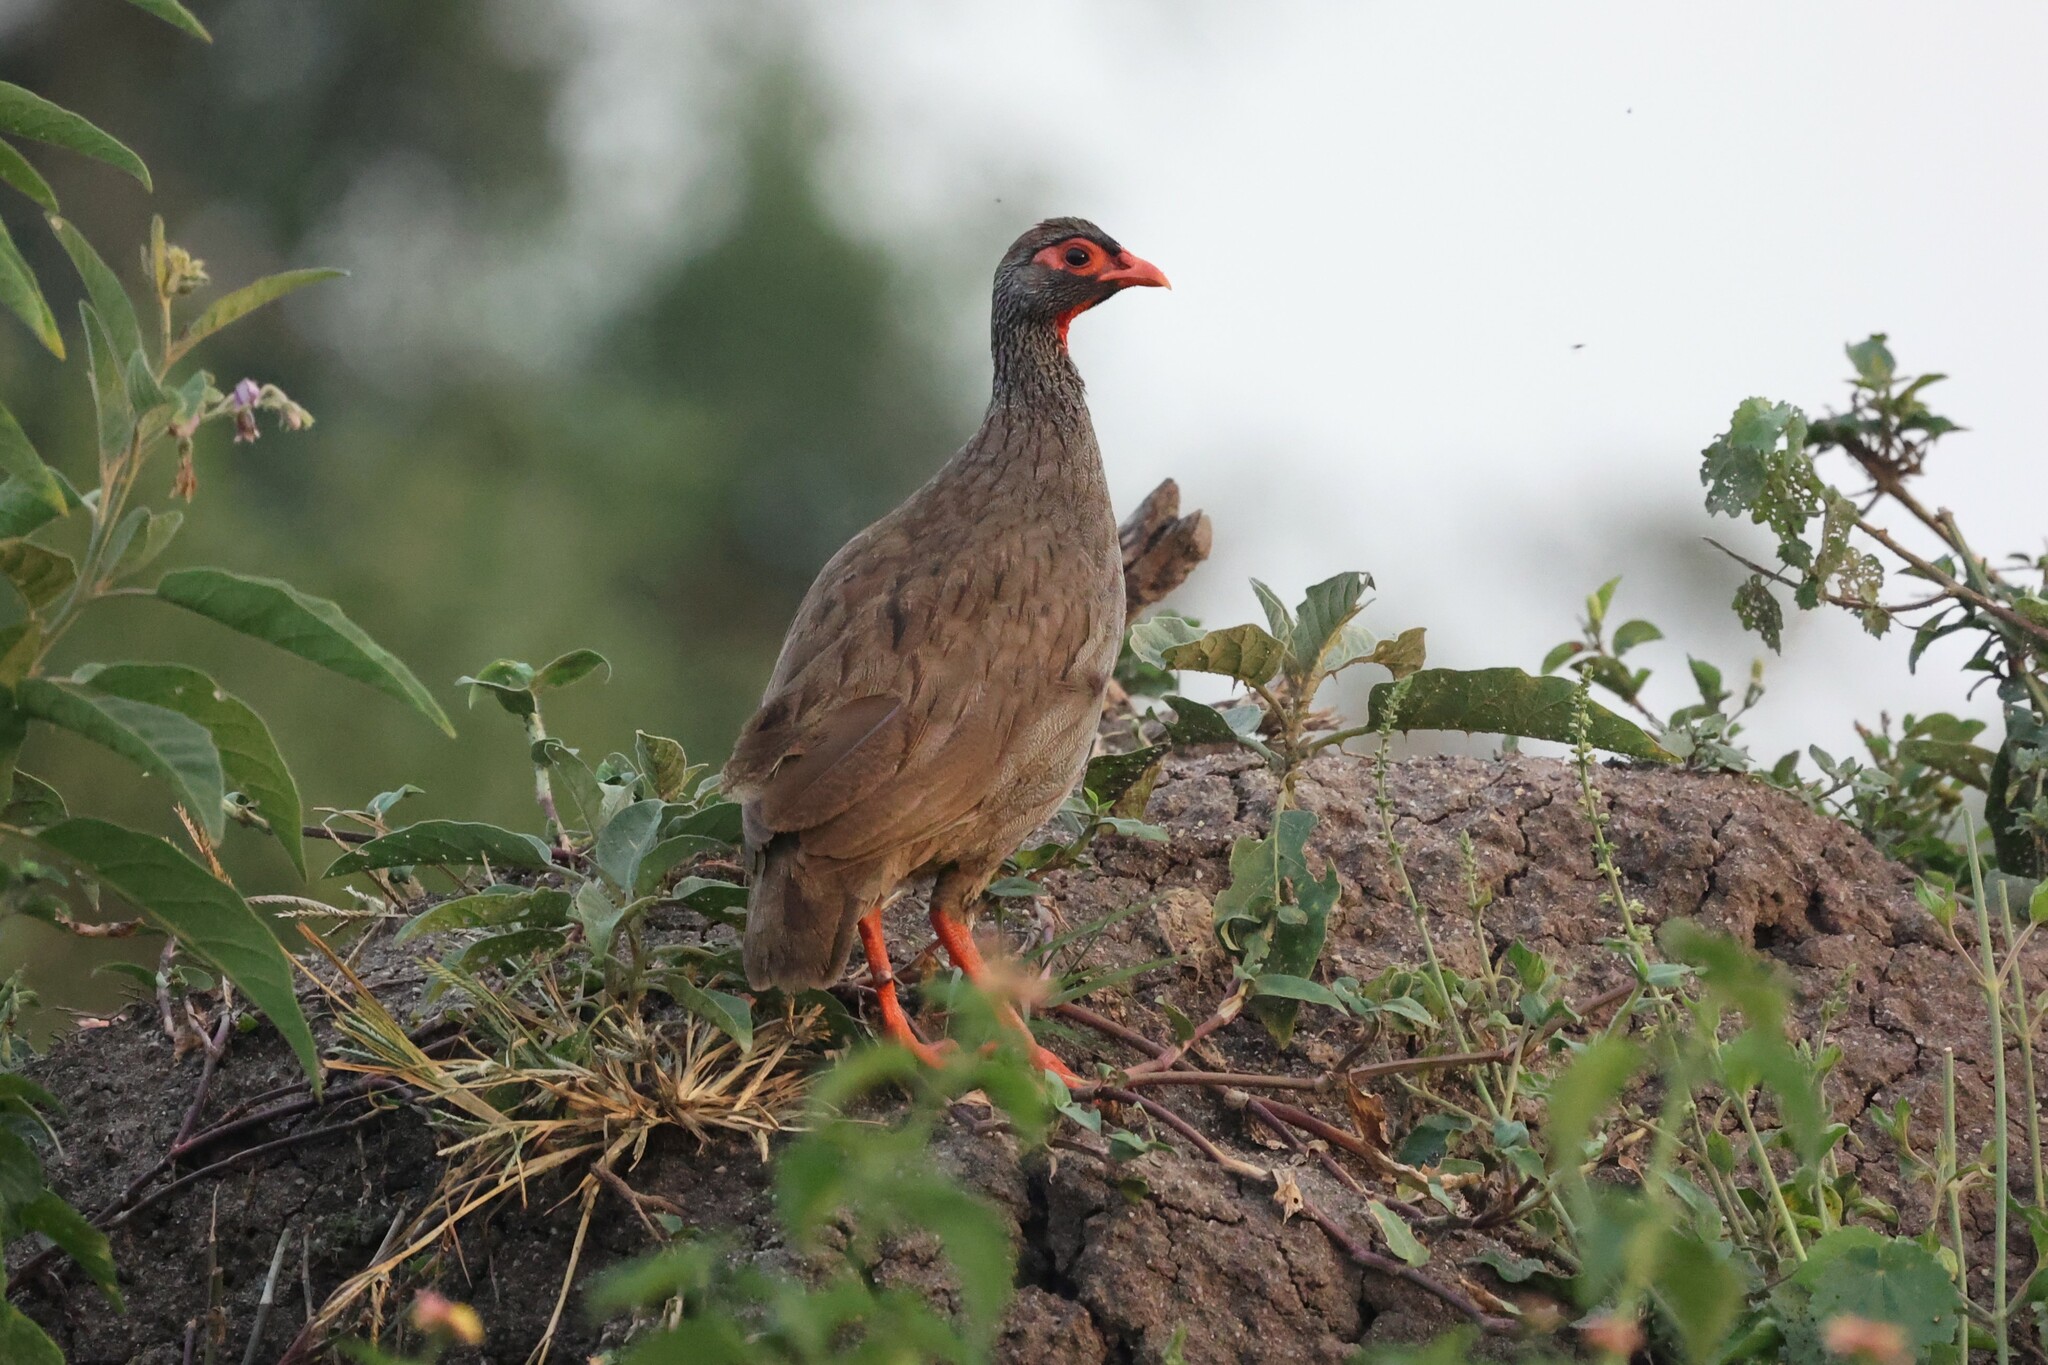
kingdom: Animalia
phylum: Chordata
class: Aves
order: Galliformes
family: Phasianidae
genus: Pternistis
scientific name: Pternistis afer
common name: Red-necked spurfowl
